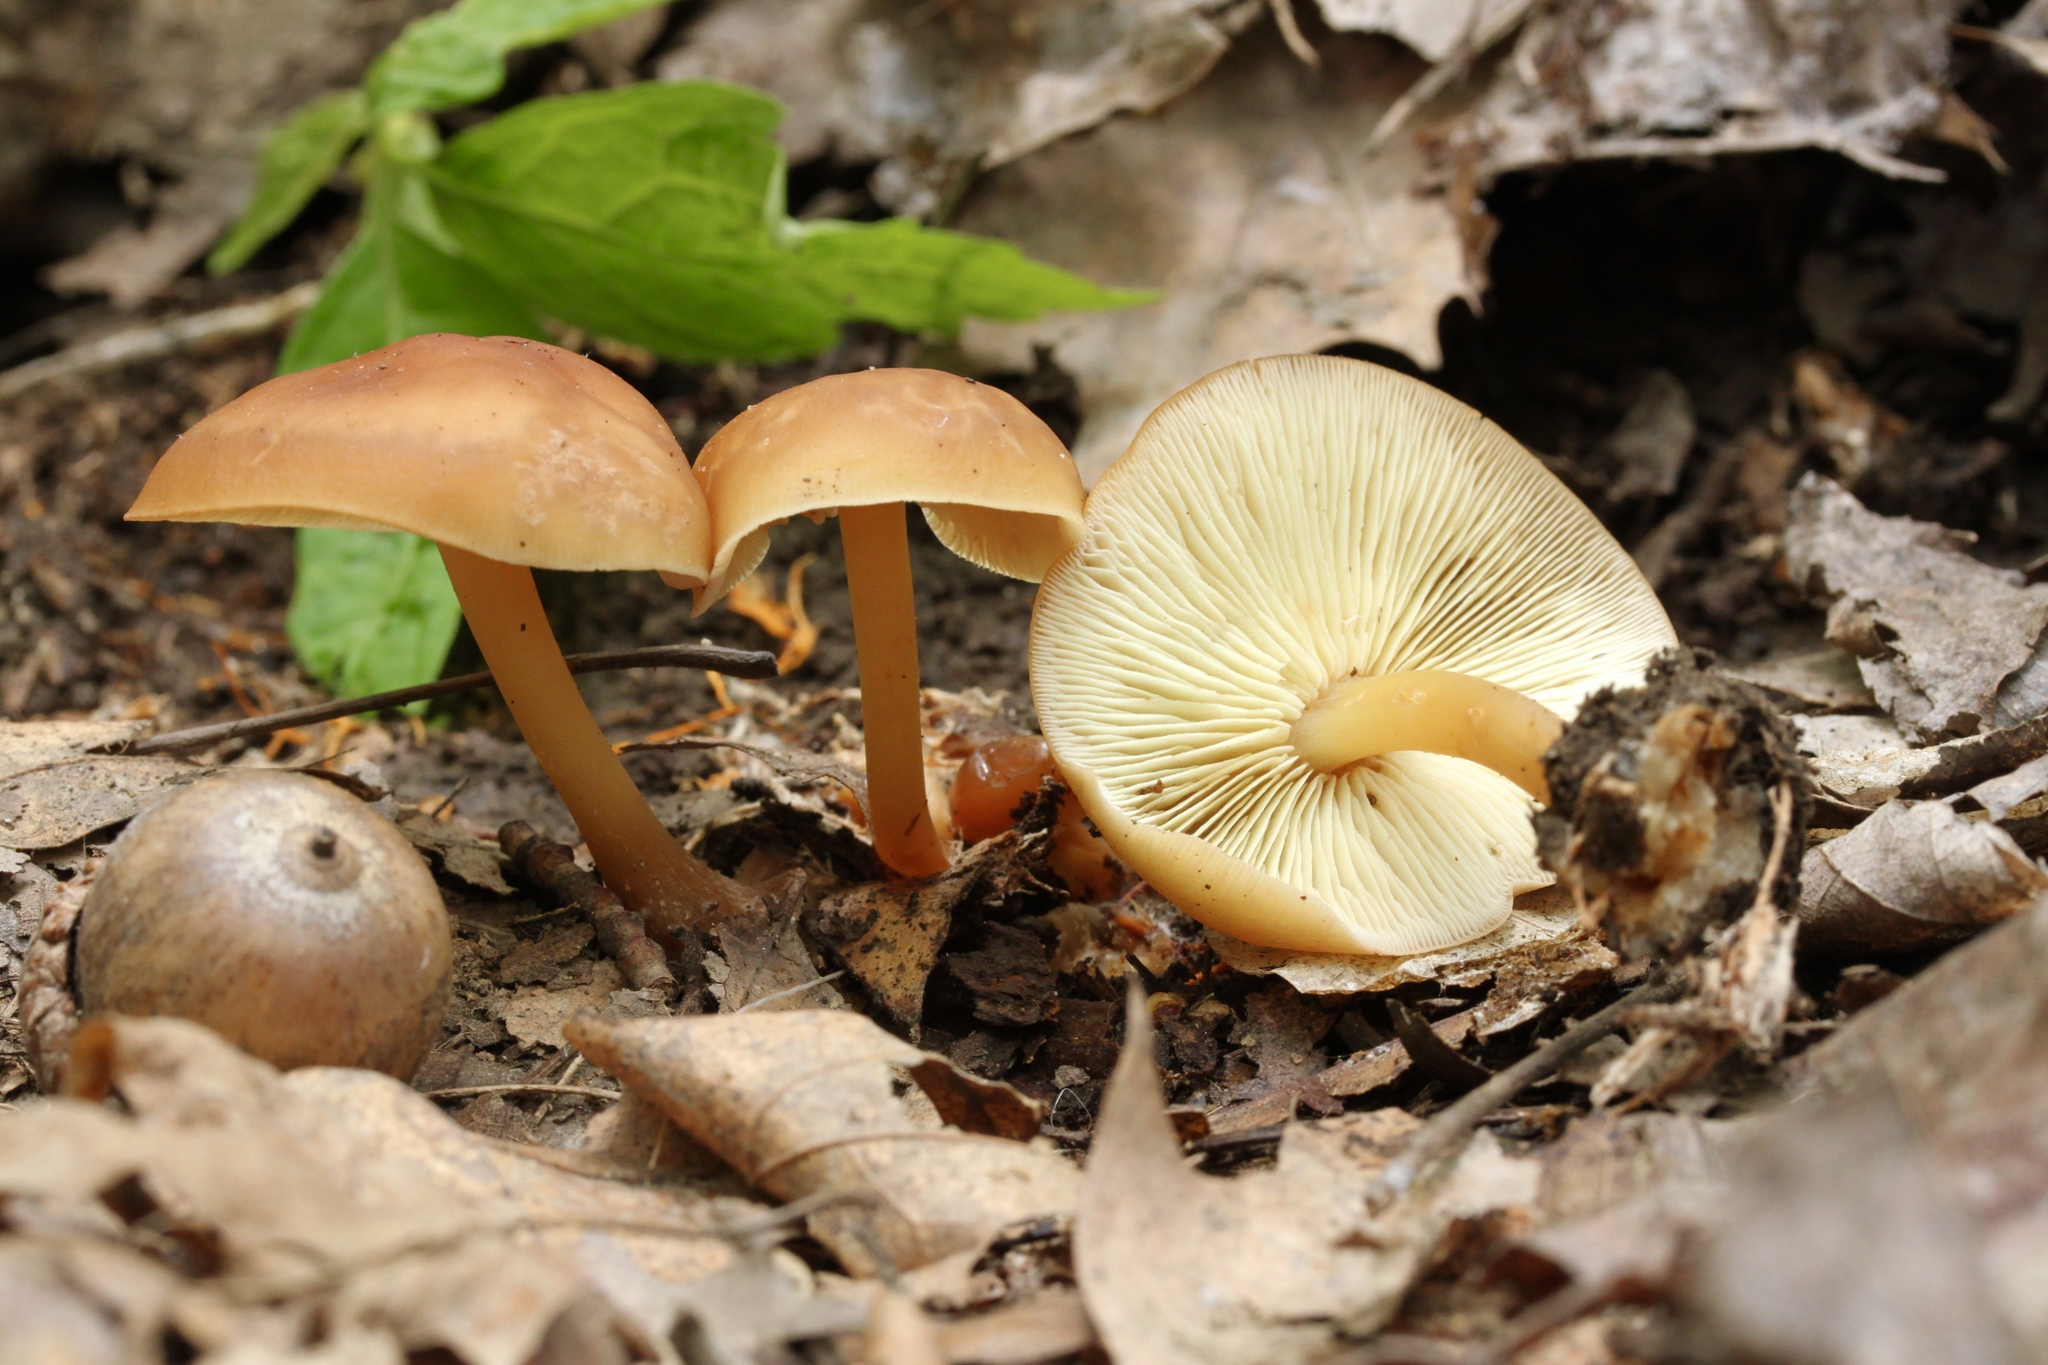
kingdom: Fungi
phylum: Basidiomycota
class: Agaricomycetes
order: Agaricales
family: Omphalotaceae
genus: Gymnopus
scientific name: Gymnopus dryophilus
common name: Penny top
